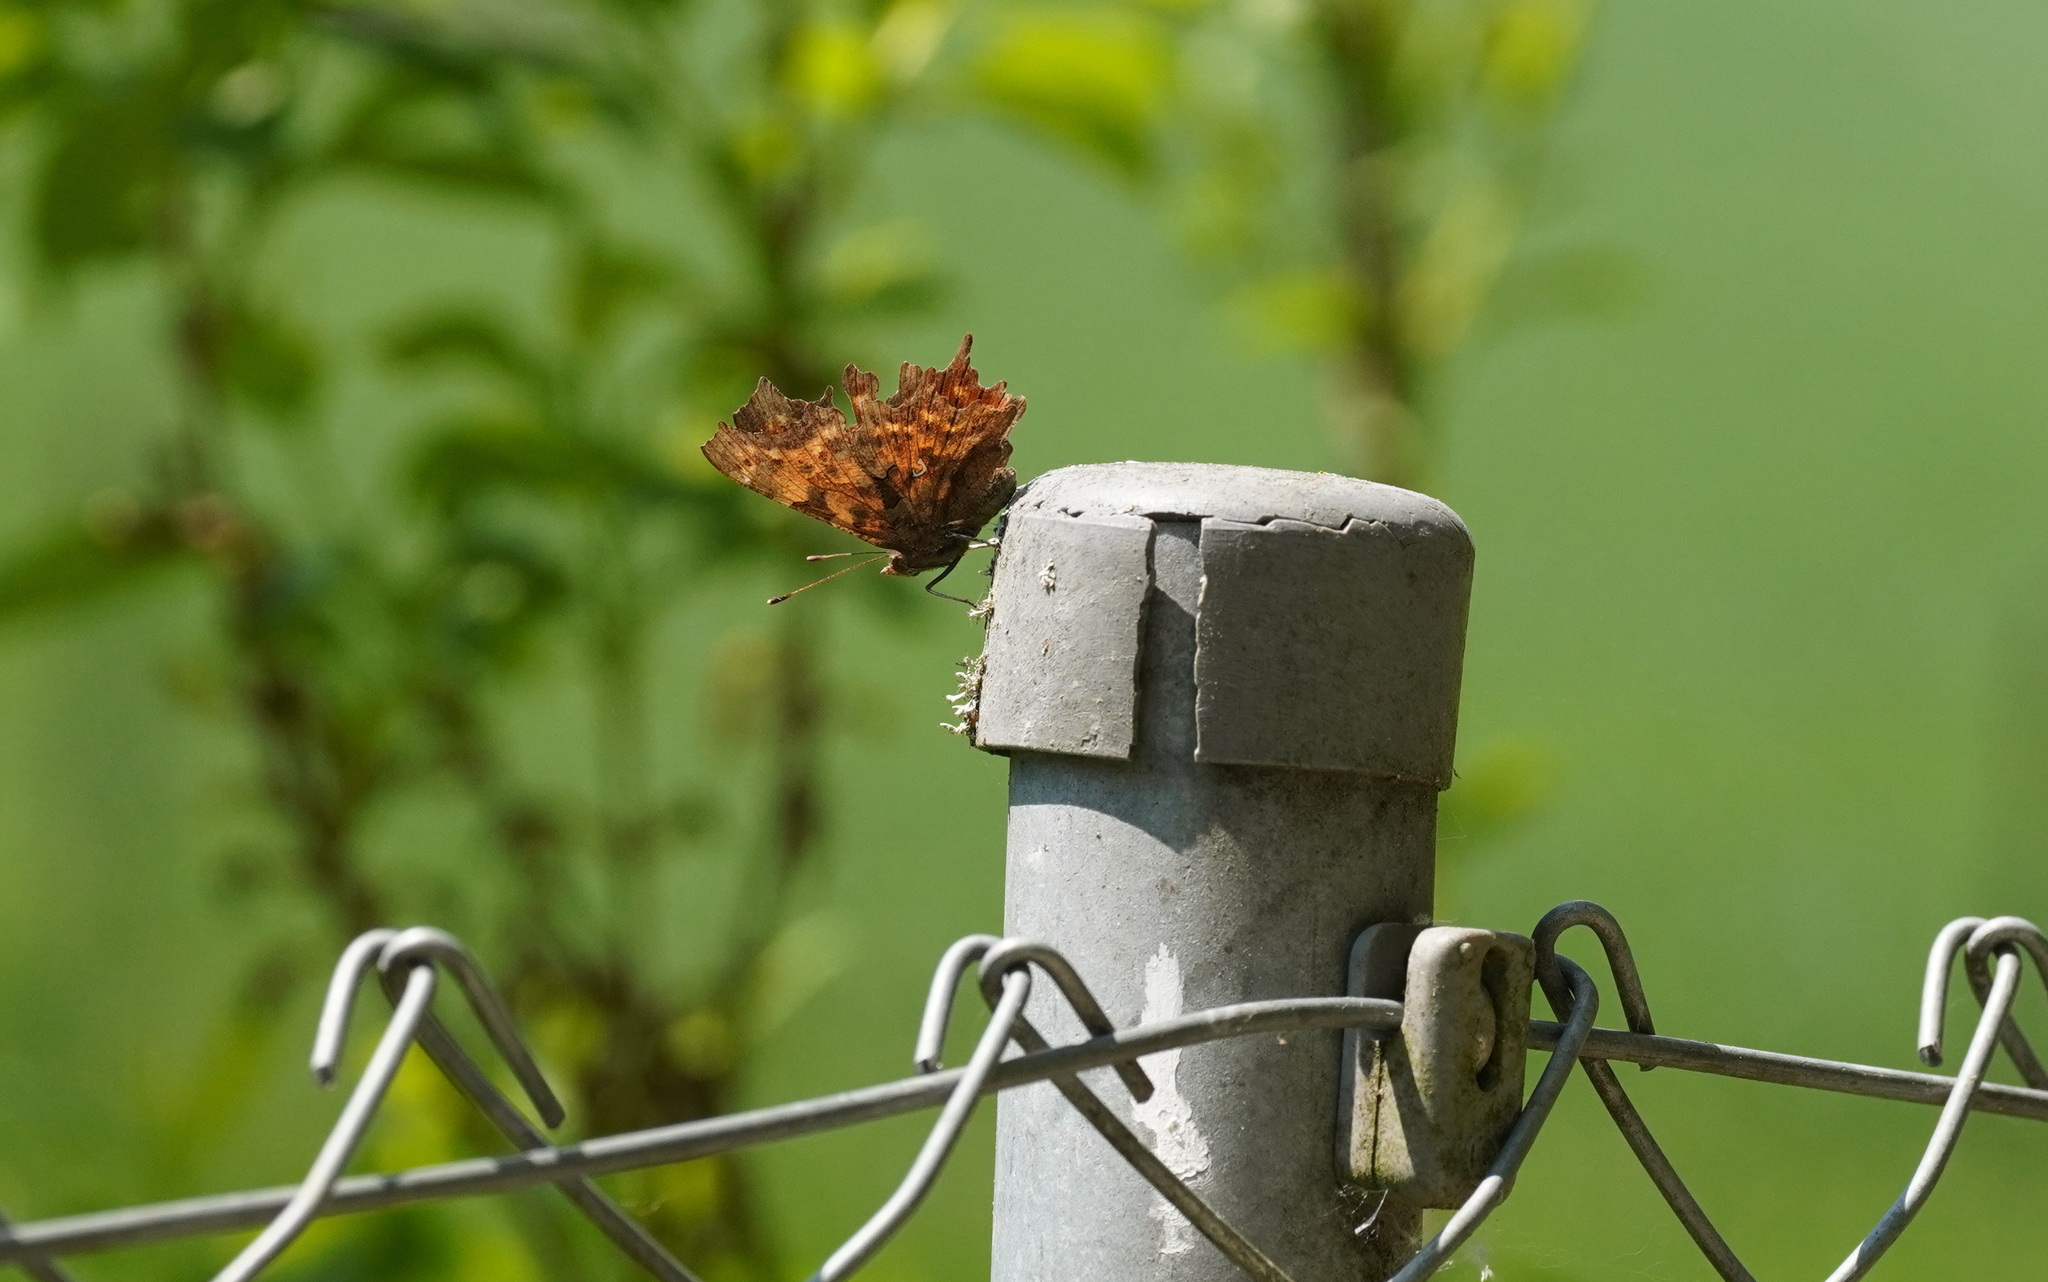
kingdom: Animalia
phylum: Arthropoda
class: Insecta
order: Lepidoptera
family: Nymphalidae
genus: Polygonia
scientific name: Polygonia c-album
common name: Comma
